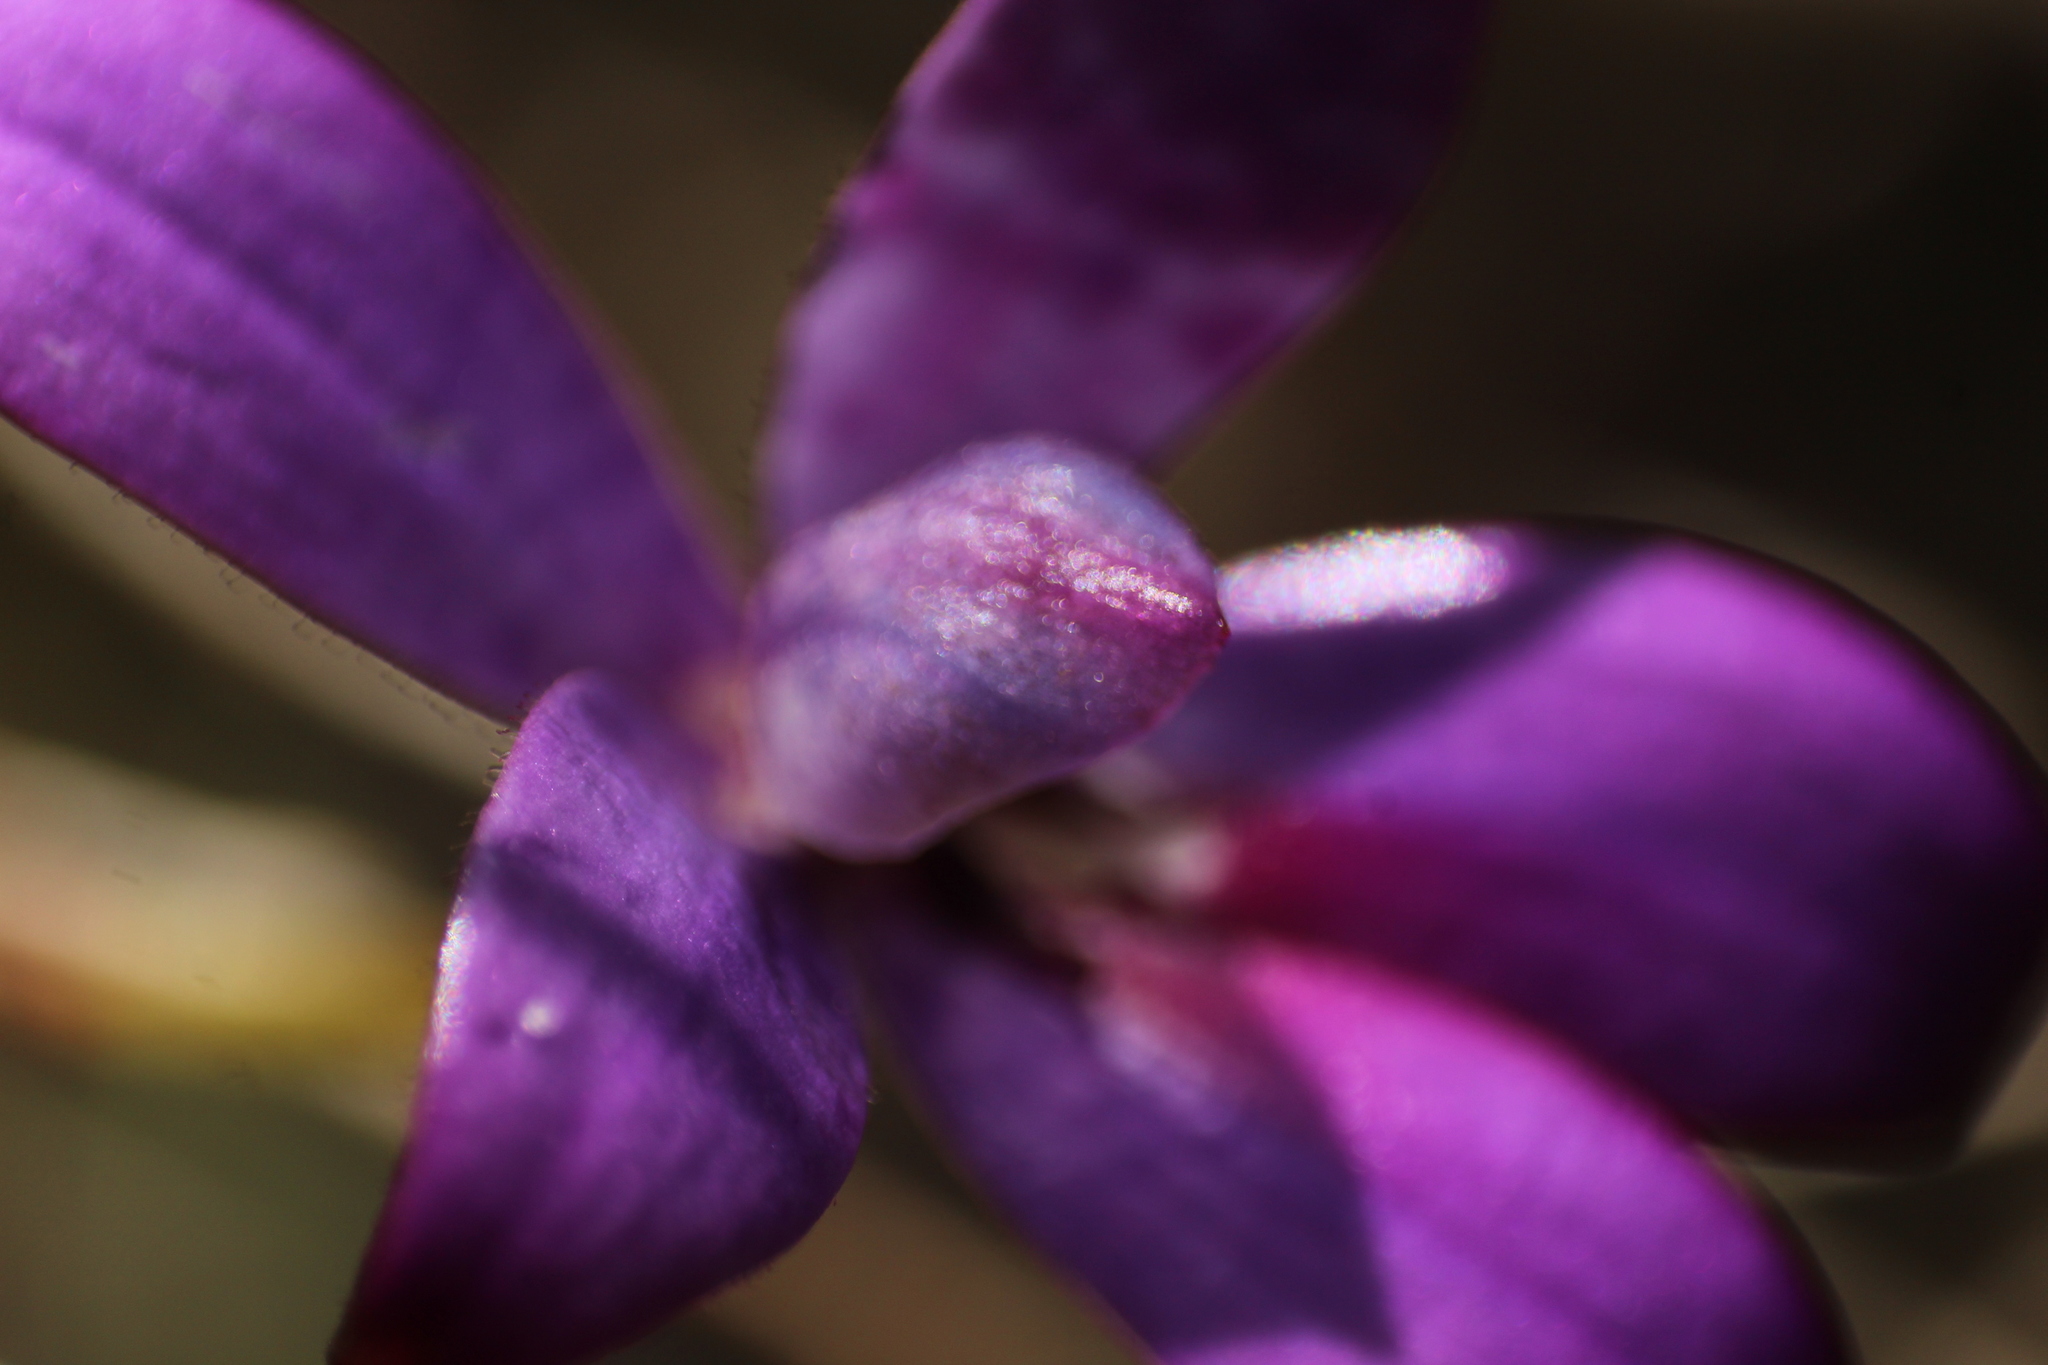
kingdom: Plantae
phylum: Tracheophyta
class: Liliopsida
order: Asparagales
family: Orchidaceae
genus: Caladenia
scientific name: Caladenia brunonis
